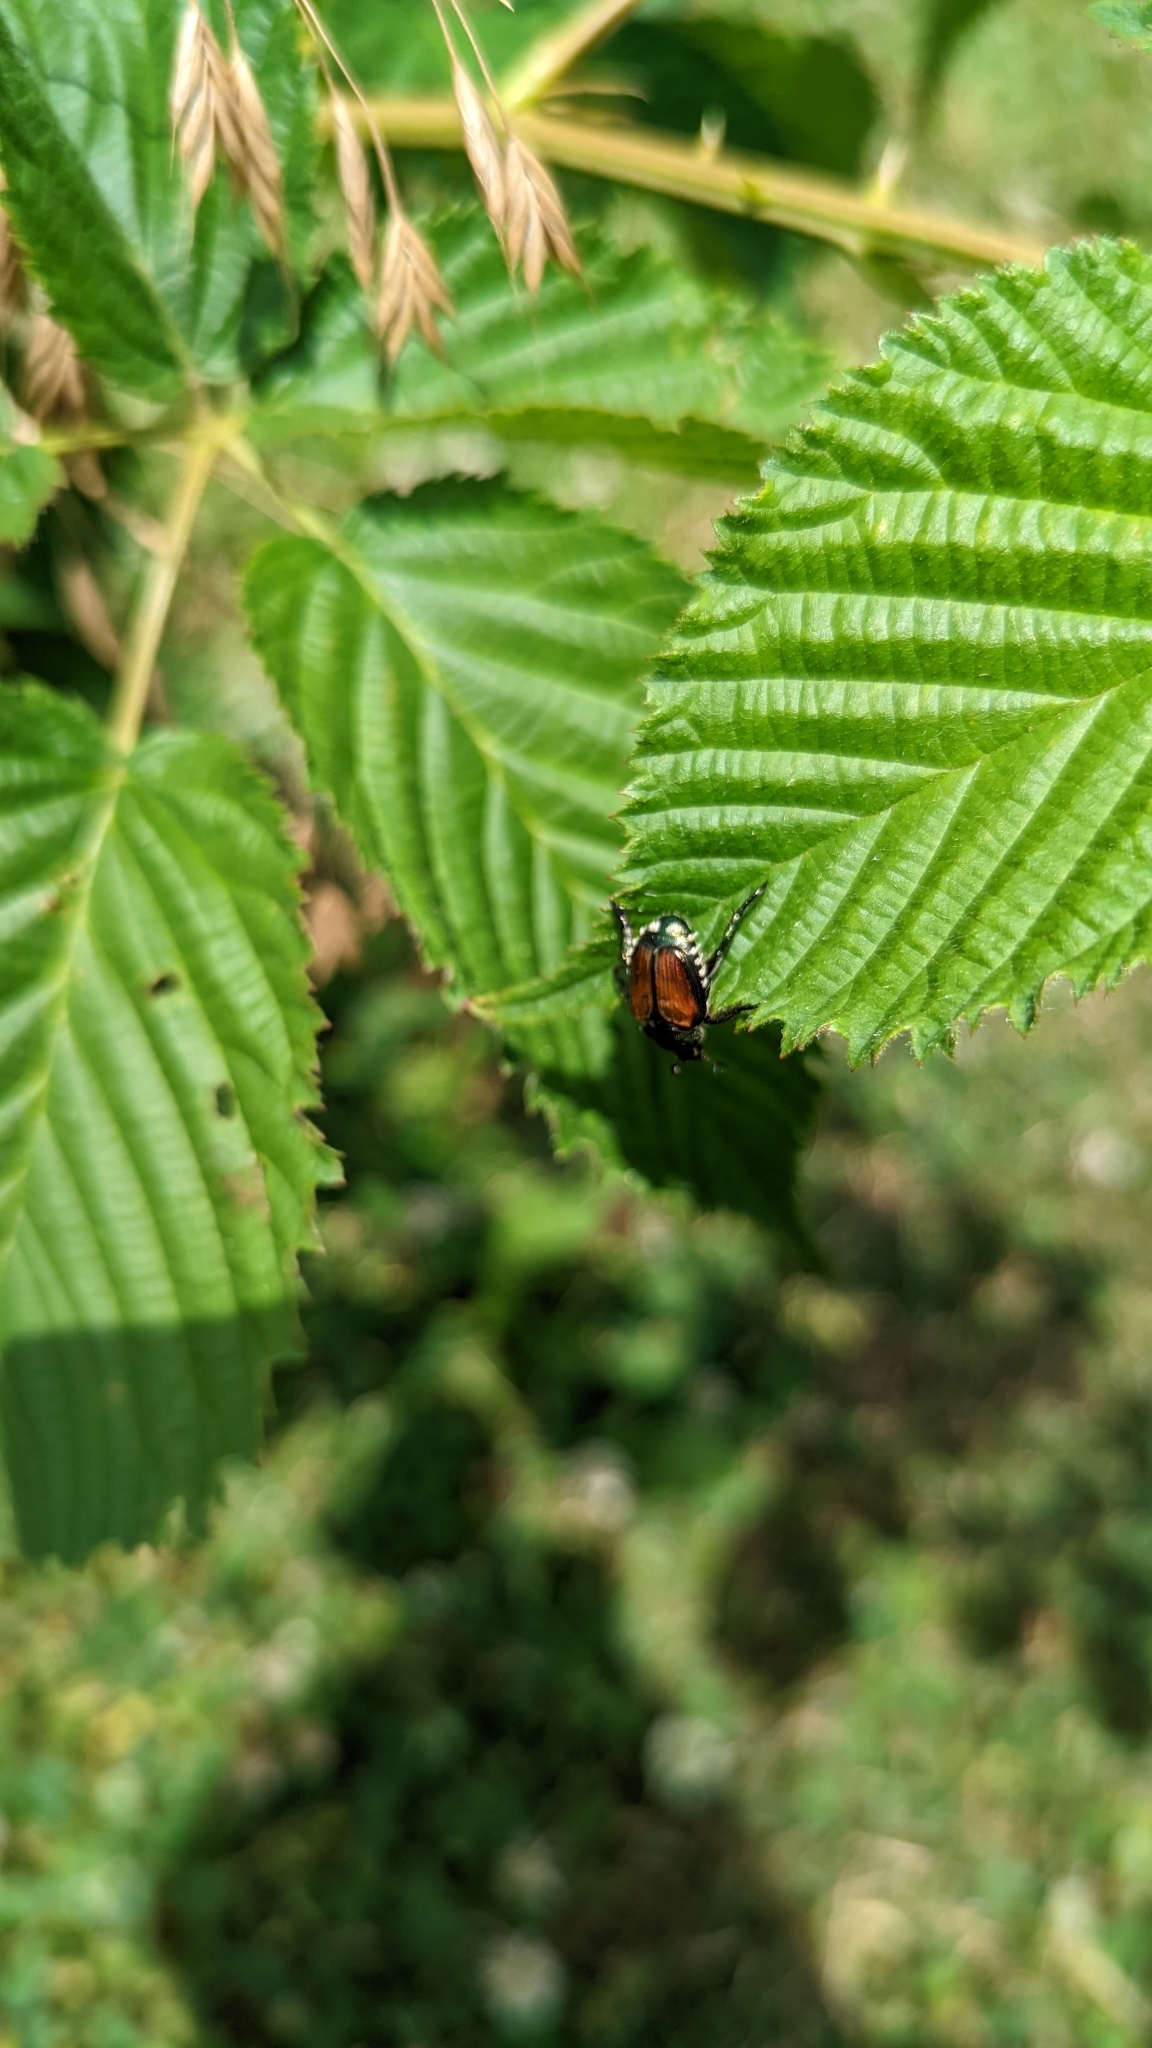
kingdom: Animalia
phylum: Arthropoda
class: Insecta
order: Coleoptera
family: Scarabaeidae
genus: Popillia
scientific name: Popillia japonica
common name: Japanese beetle
